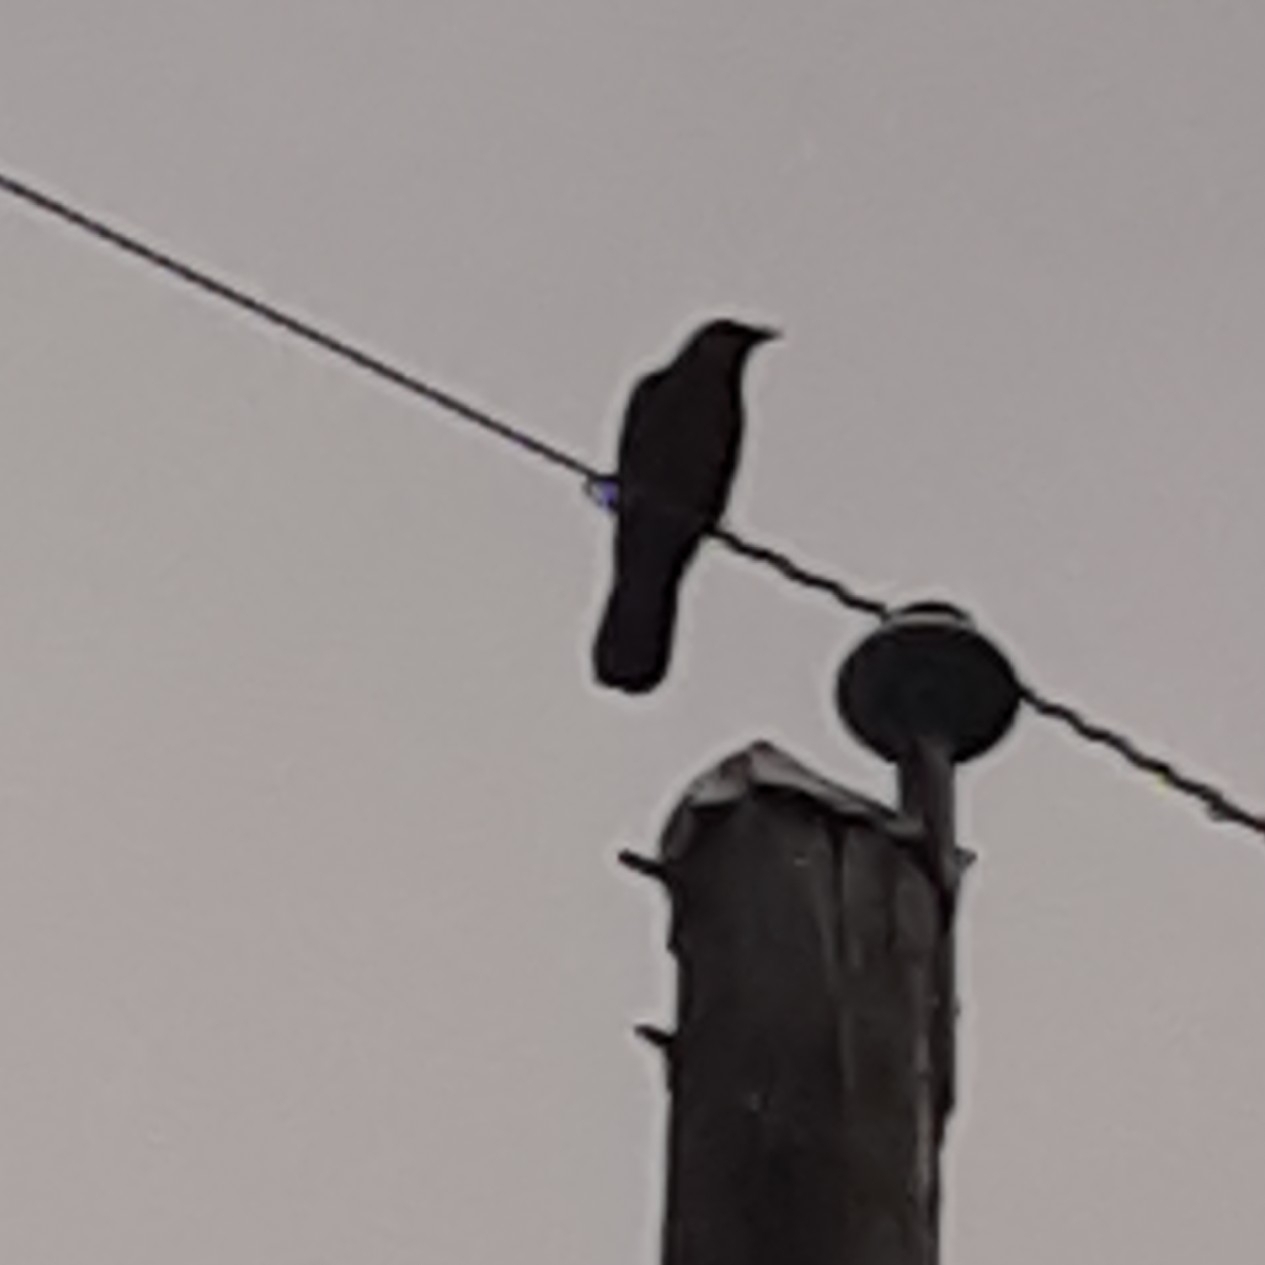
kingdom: Animalia
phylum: Chordata
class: Aves
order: Passeriformes
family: Corvidae
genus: Corvus
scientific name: Corvus brachyrhynchos
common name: American crow
